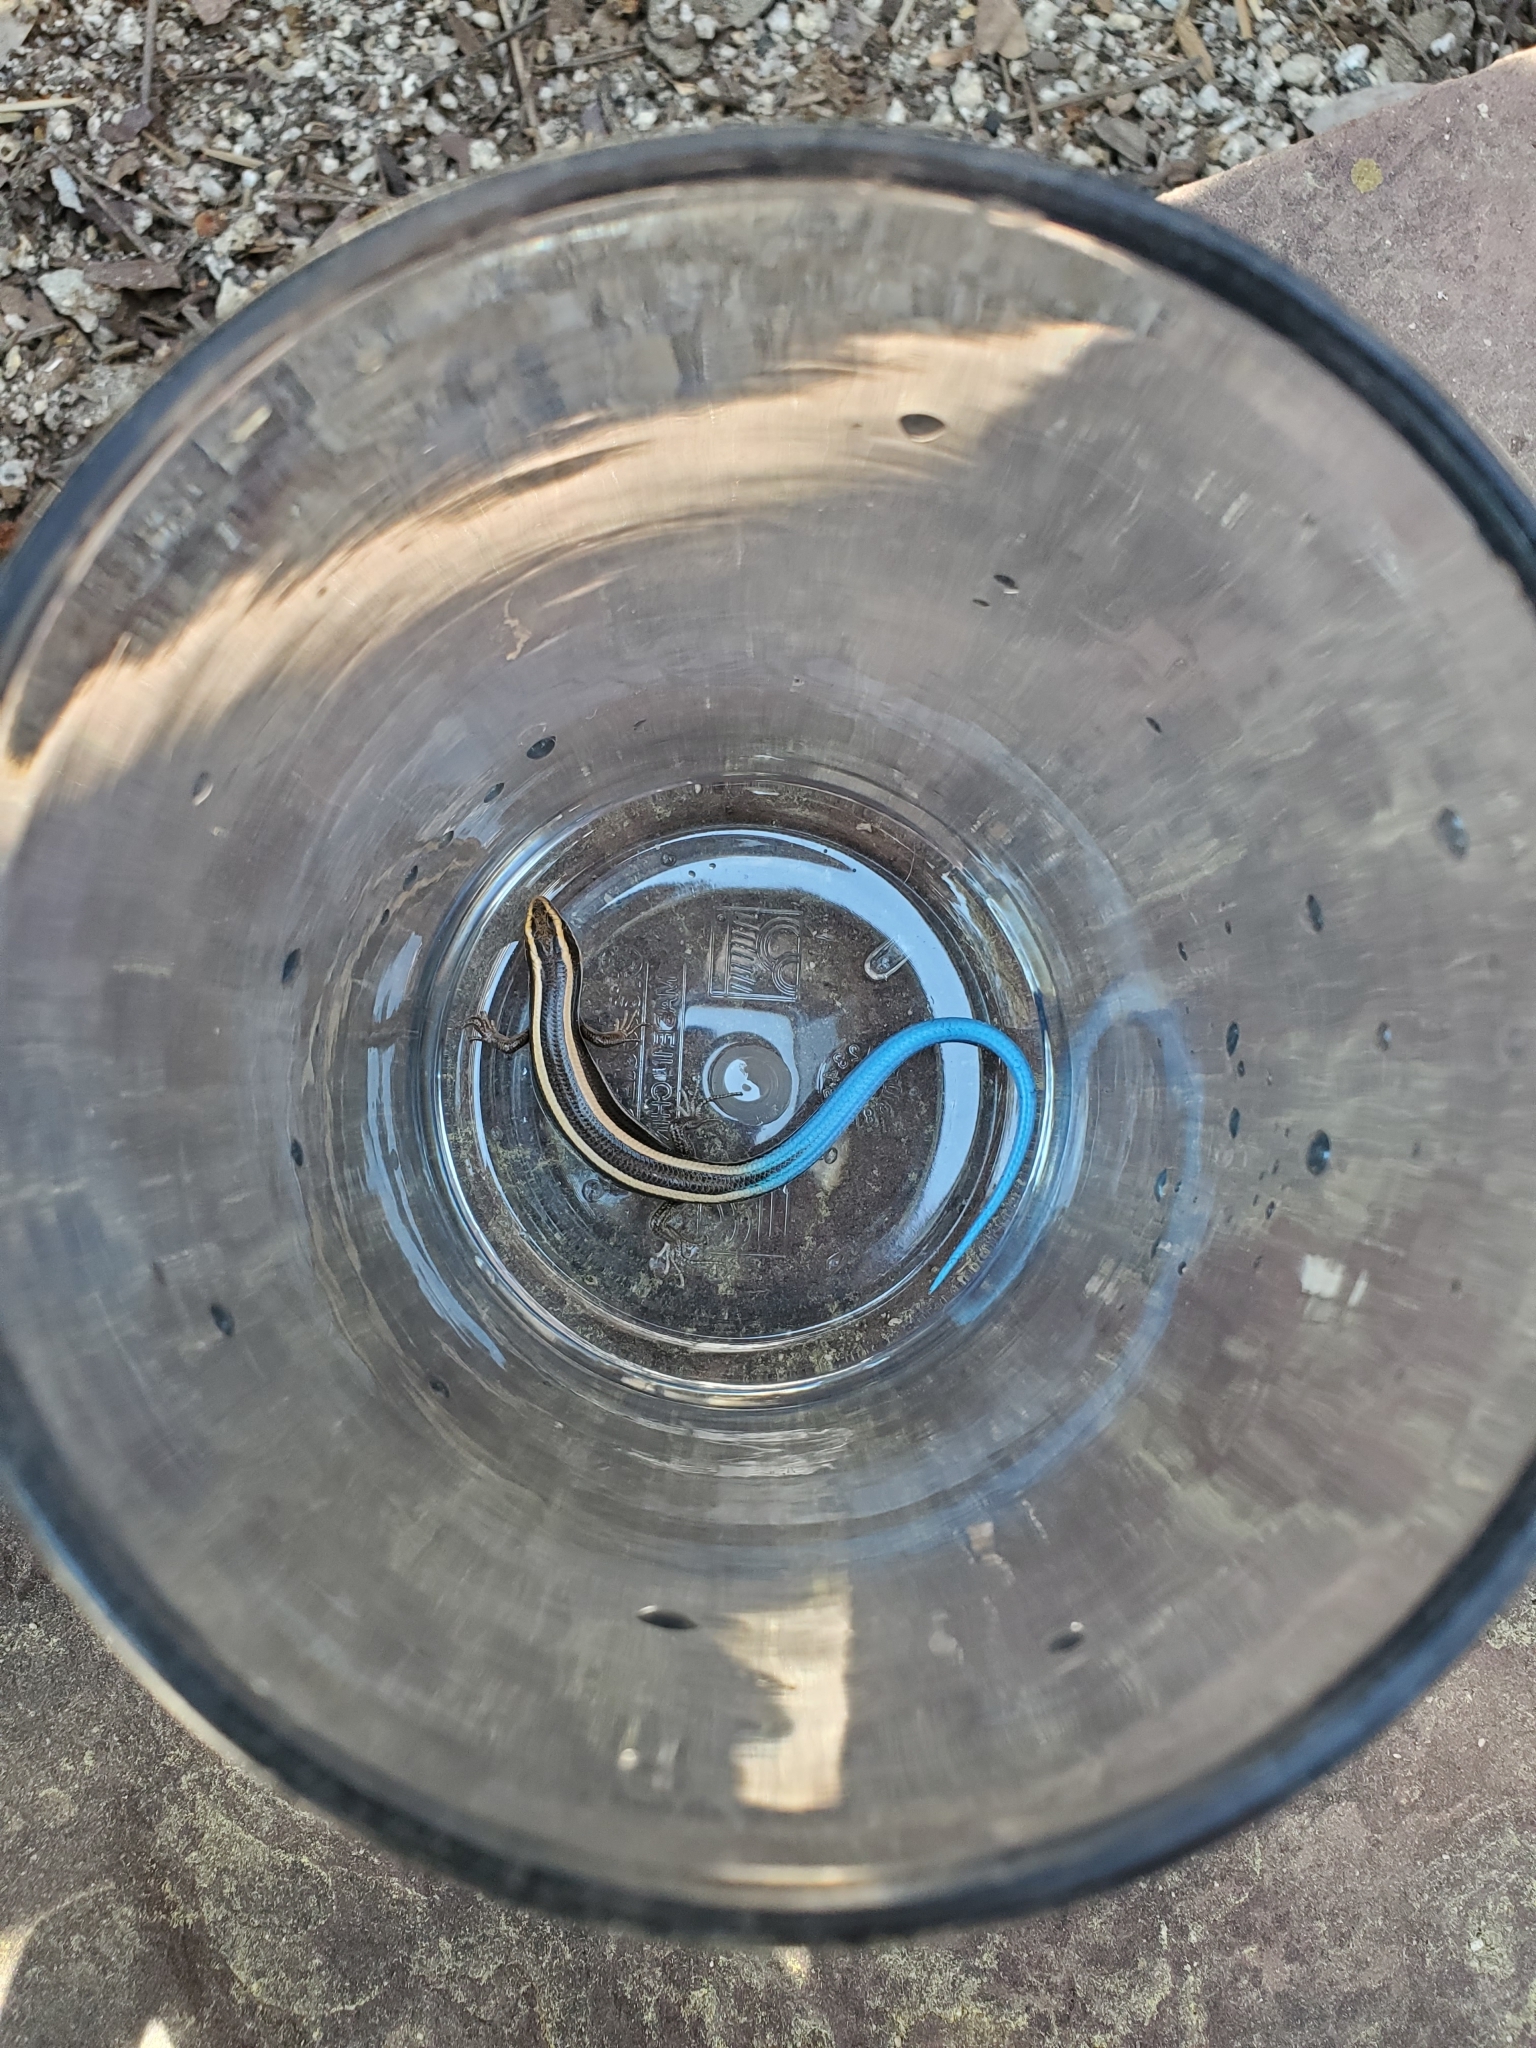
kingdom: Animalia
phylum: Chordata
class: Squamata
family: Scincidae
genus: Plestiodon
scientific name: Plestiodon skiltonianus
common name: Coronado island skink [interparietalis]
